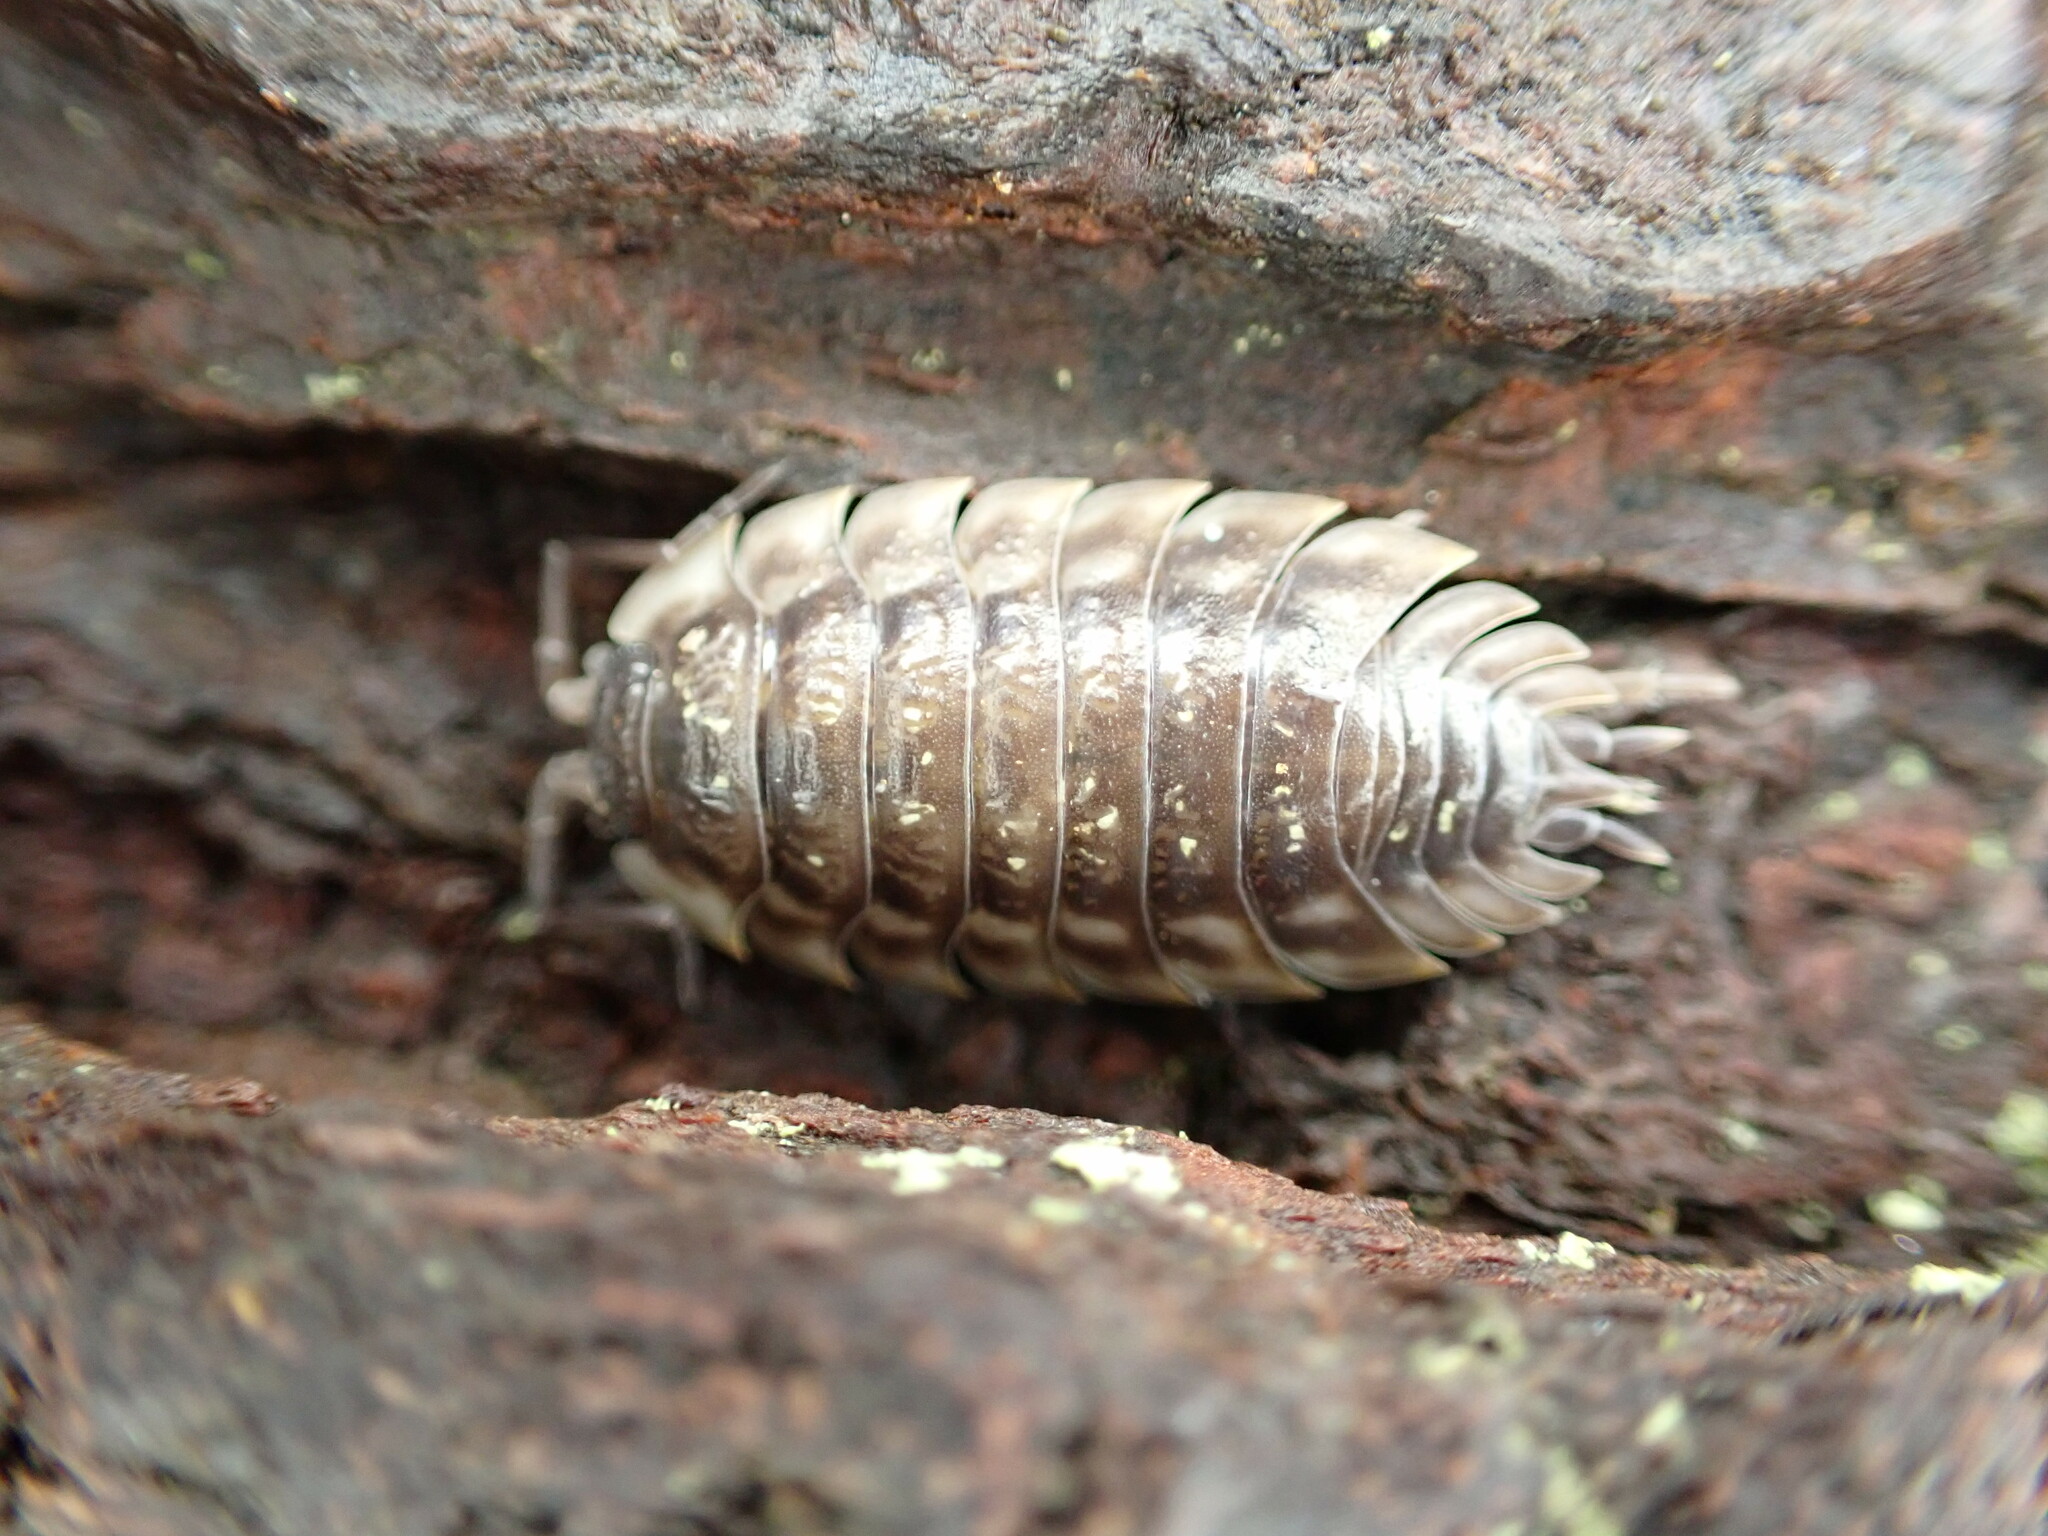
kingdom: Animalia
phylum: Arthropoda
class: Malacostraca
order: Isopoda
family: Oniscidae
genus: Oniscus
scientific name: Oniscus asellus
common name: Common shiny woodlouse
